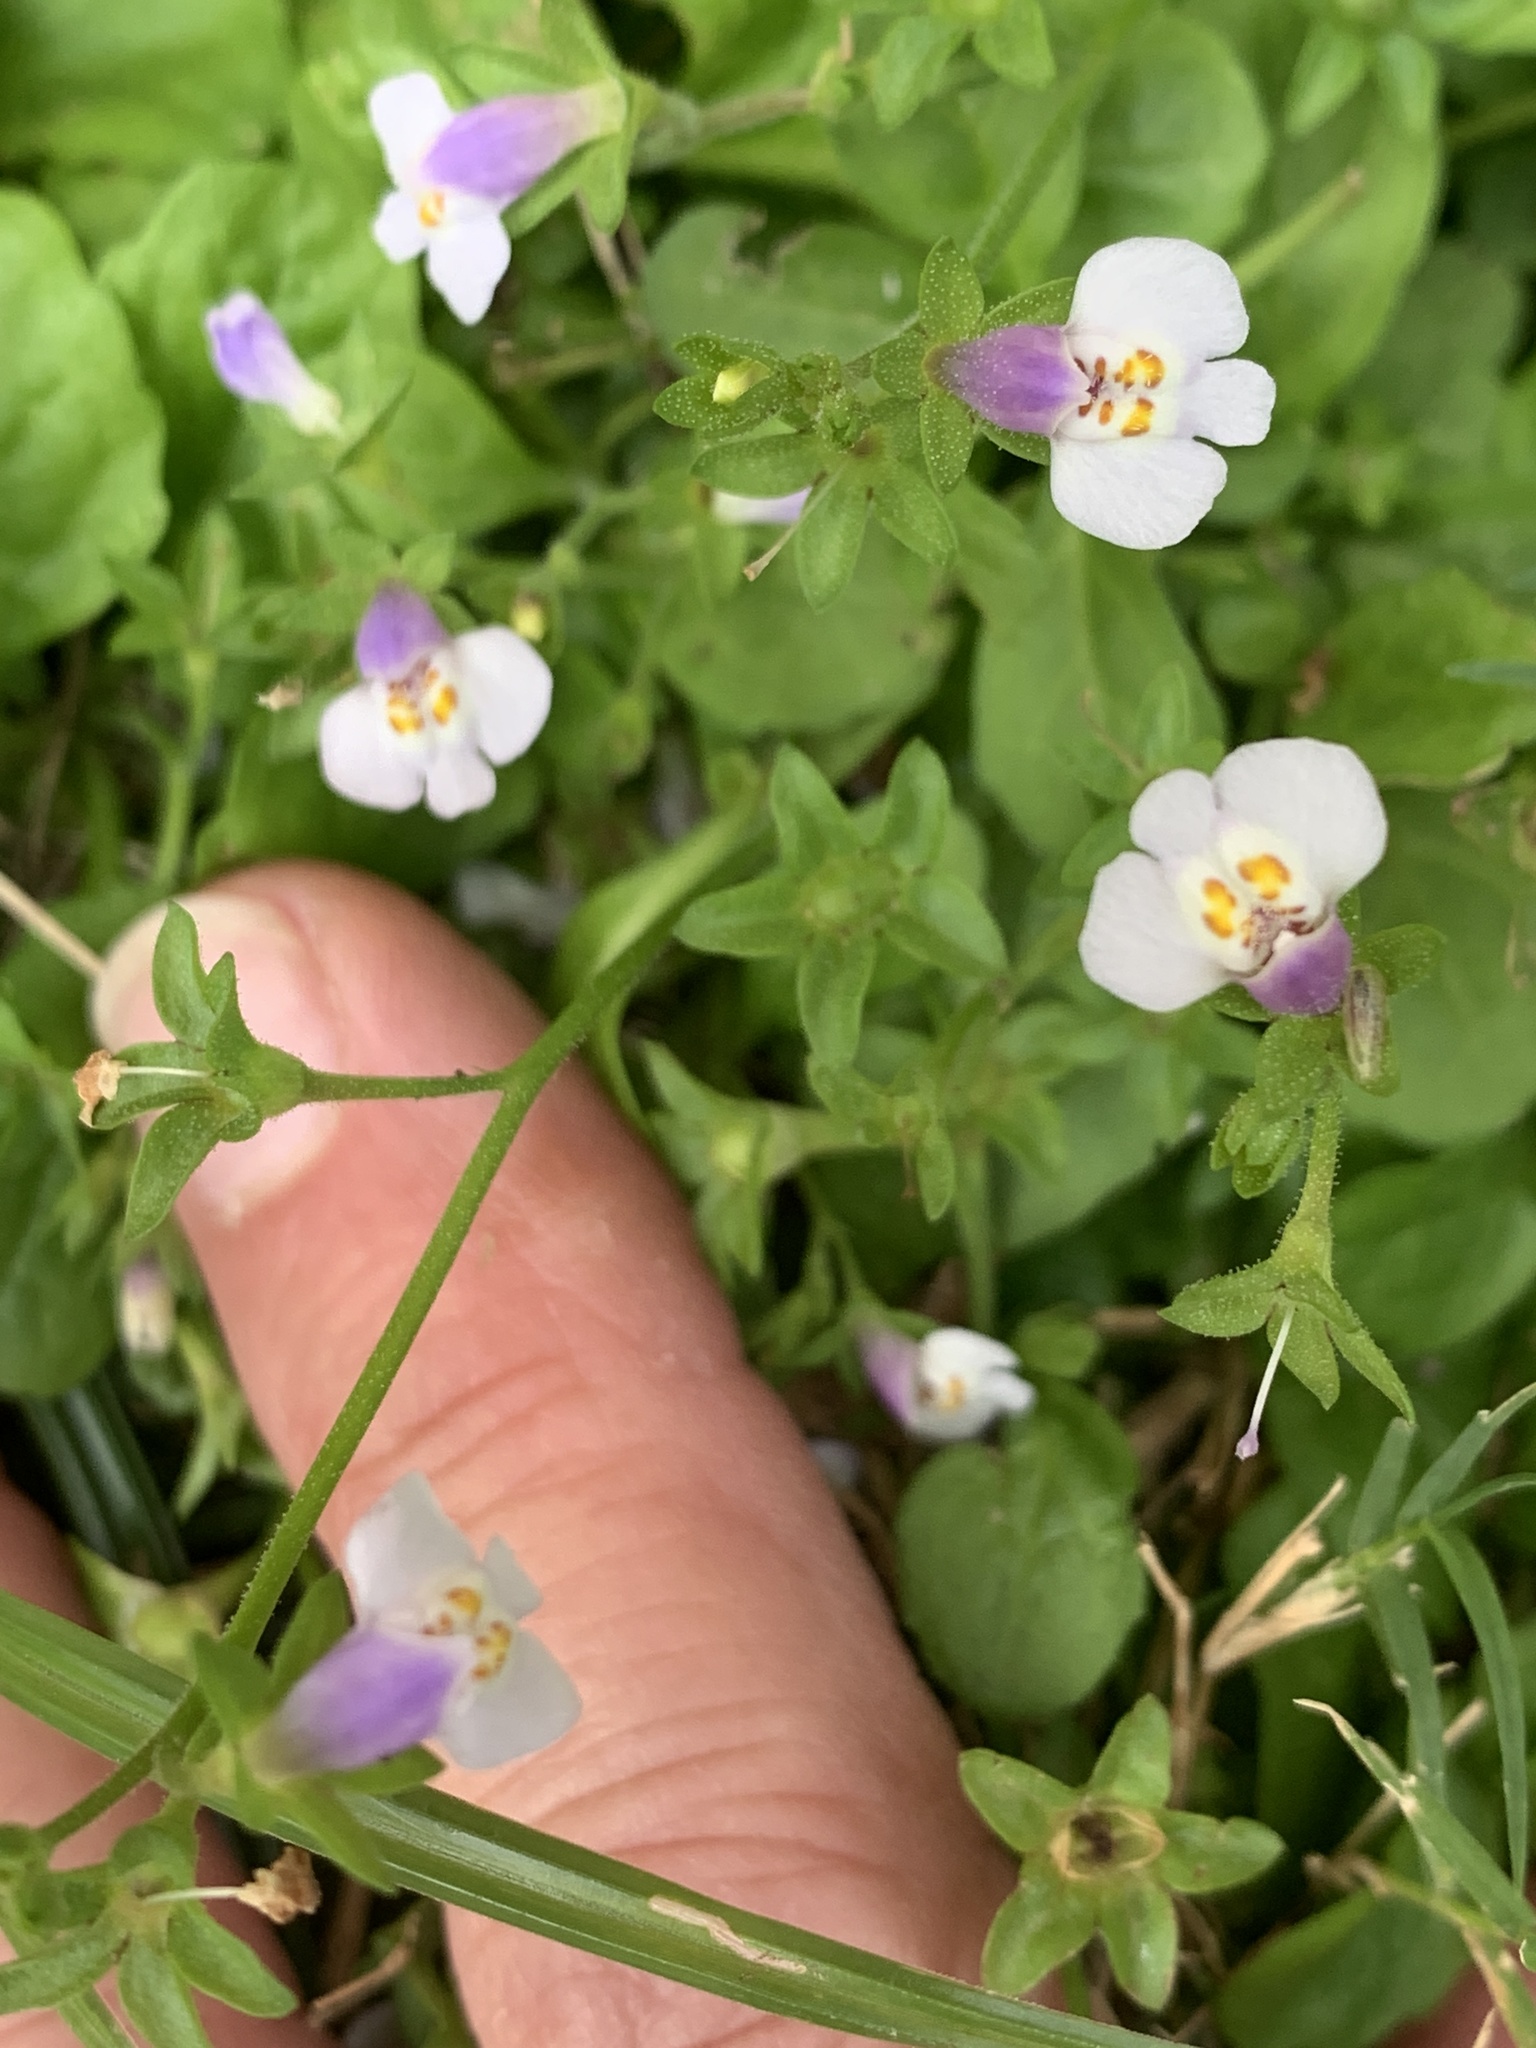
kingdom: Plantae
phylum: Tracheophyta
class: Magnoliopsida
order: Lamiales
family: Mazaceae
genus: Mazus
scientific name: Mazus pumilus
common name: Japanese mazus
